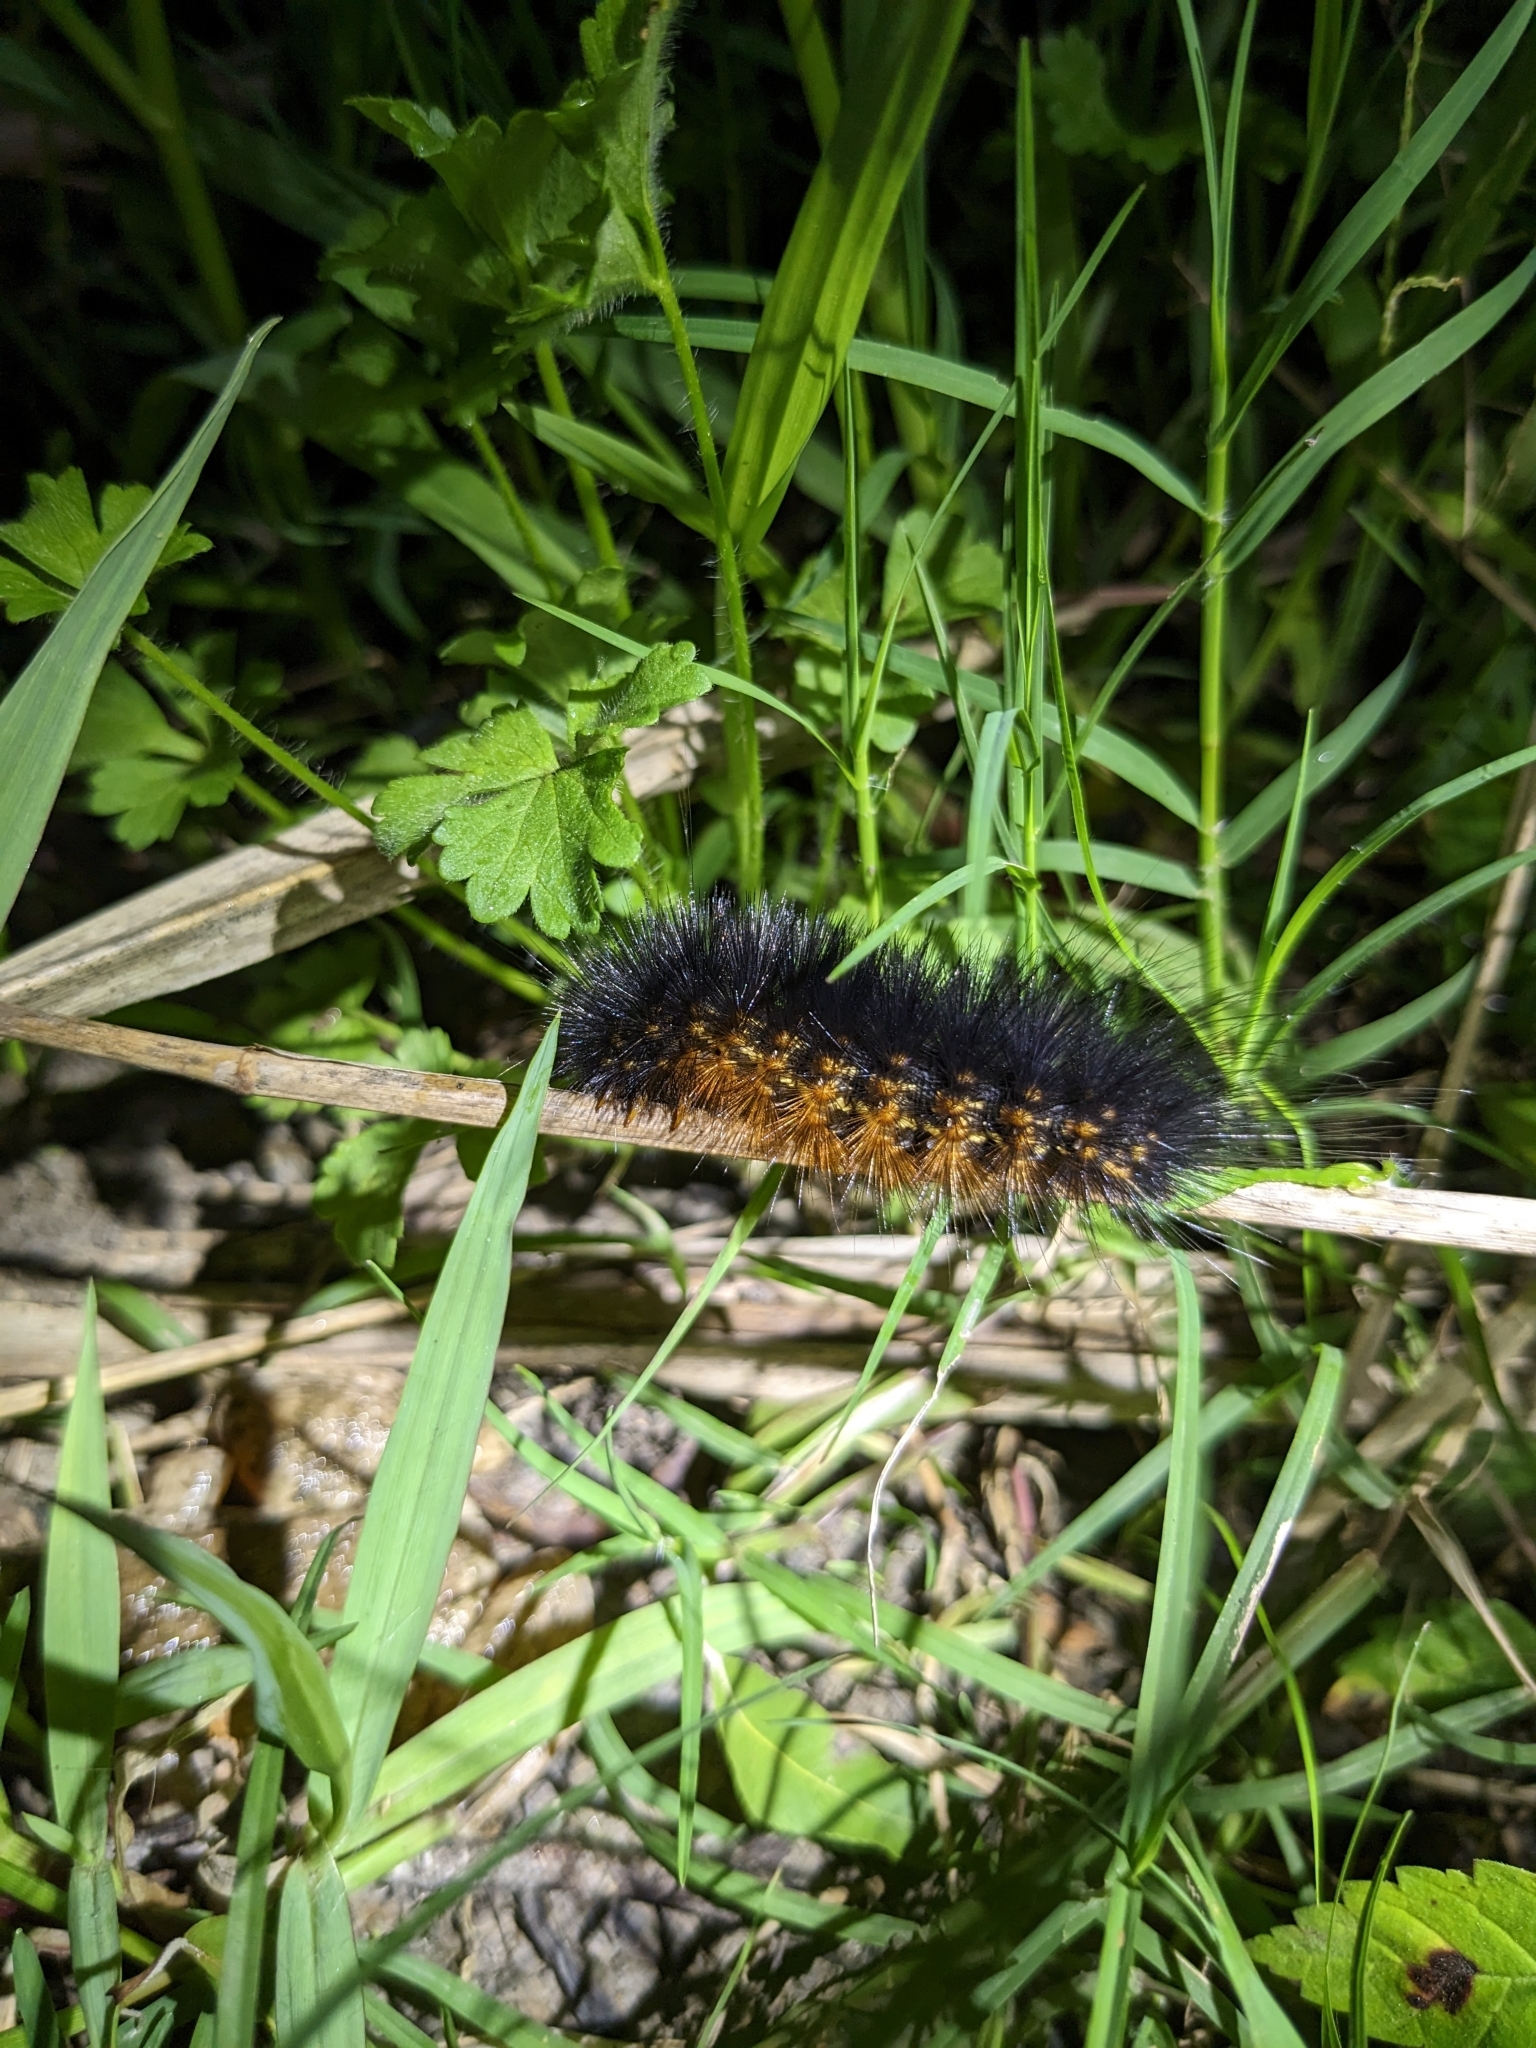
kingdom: Animalia
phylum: Arthropoda
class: Insecta
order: Lepidoptera
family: Erebidae
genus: Estigmene
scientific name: Estigmene acrea
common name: Salt marsh moth
